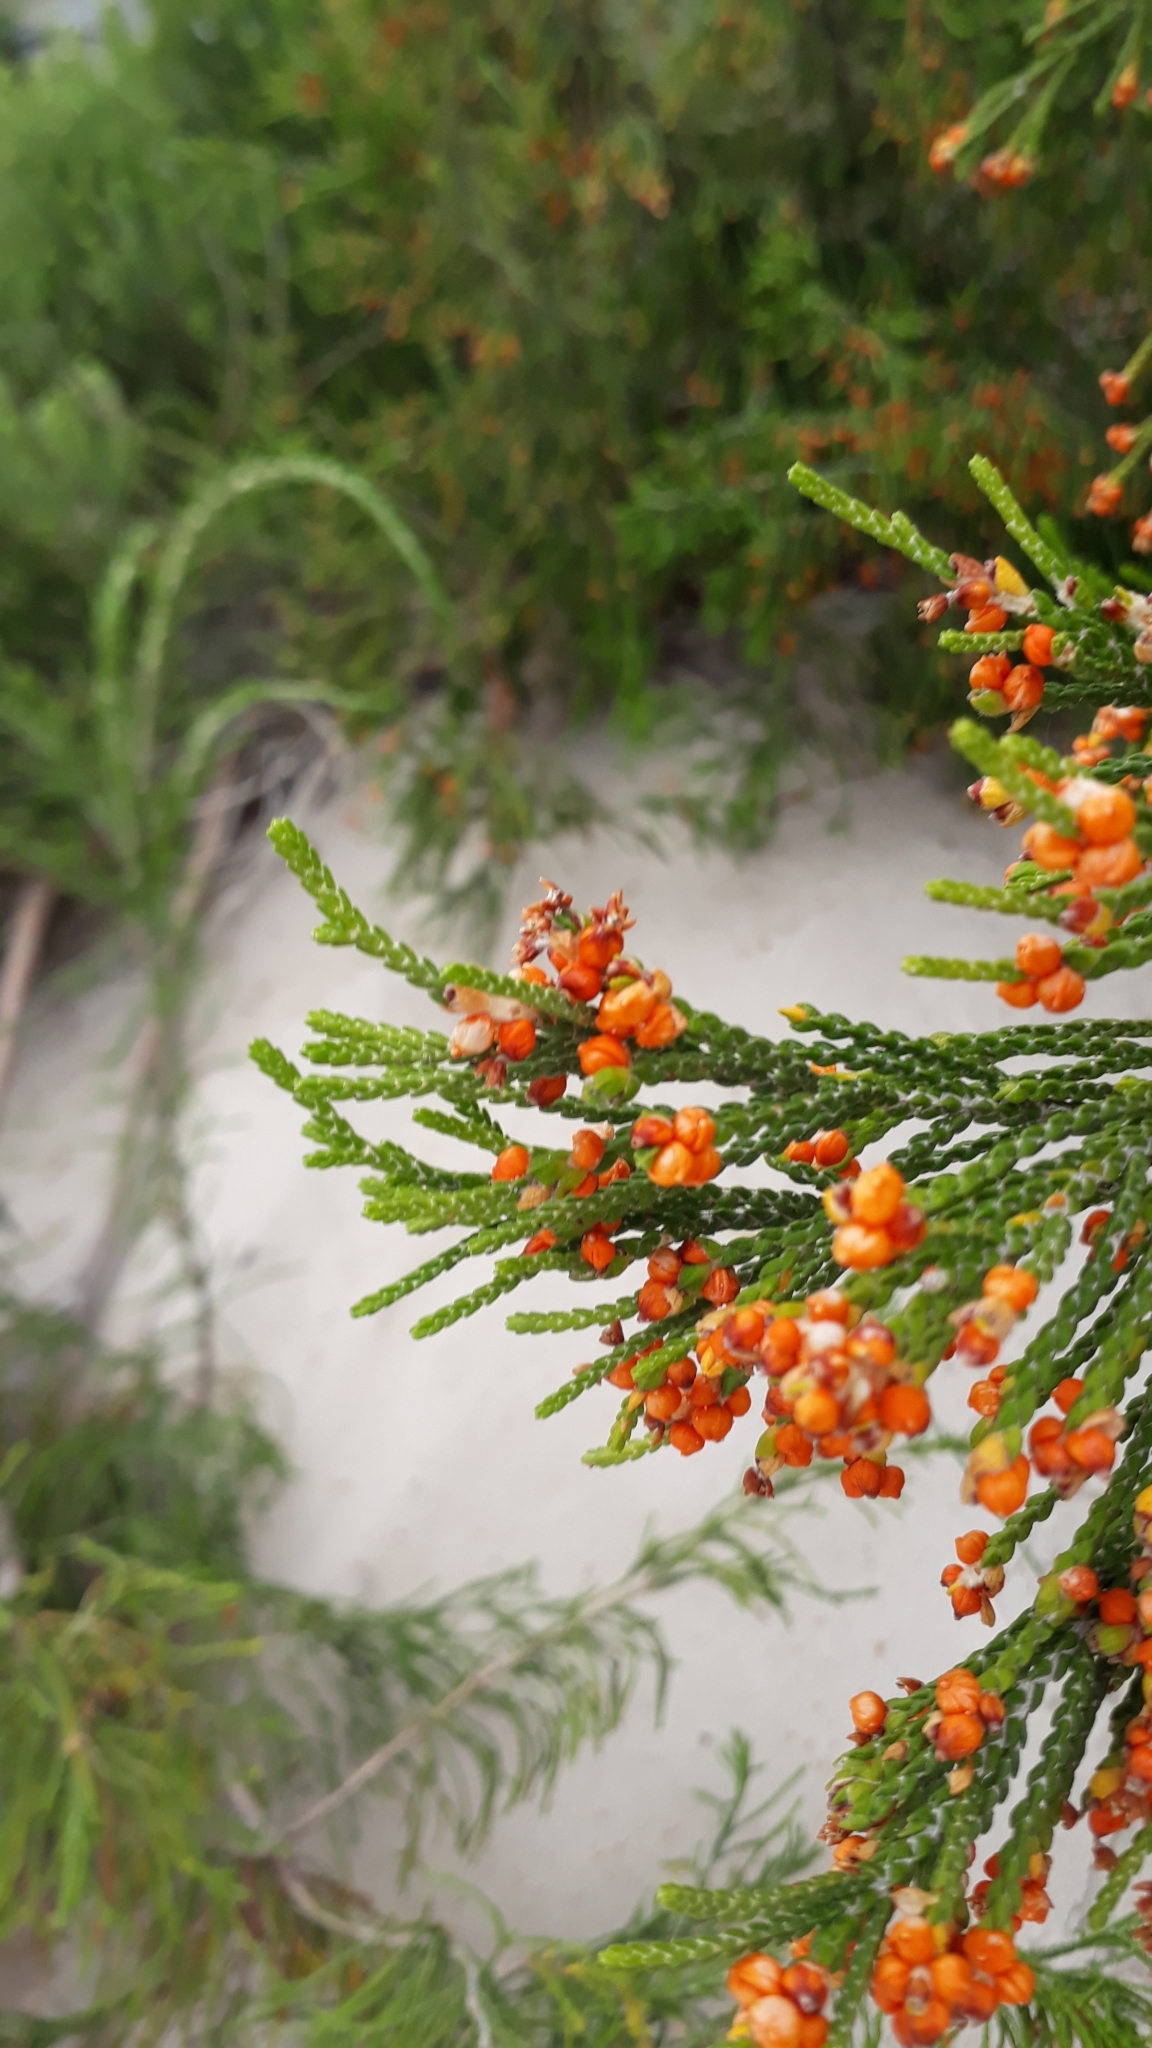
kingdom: Plantae
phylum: Tracheophyta
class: Magnoliopsida
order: Malvales
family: Thymelaeaceae
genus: Passerina
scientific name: Passerina ericoides
